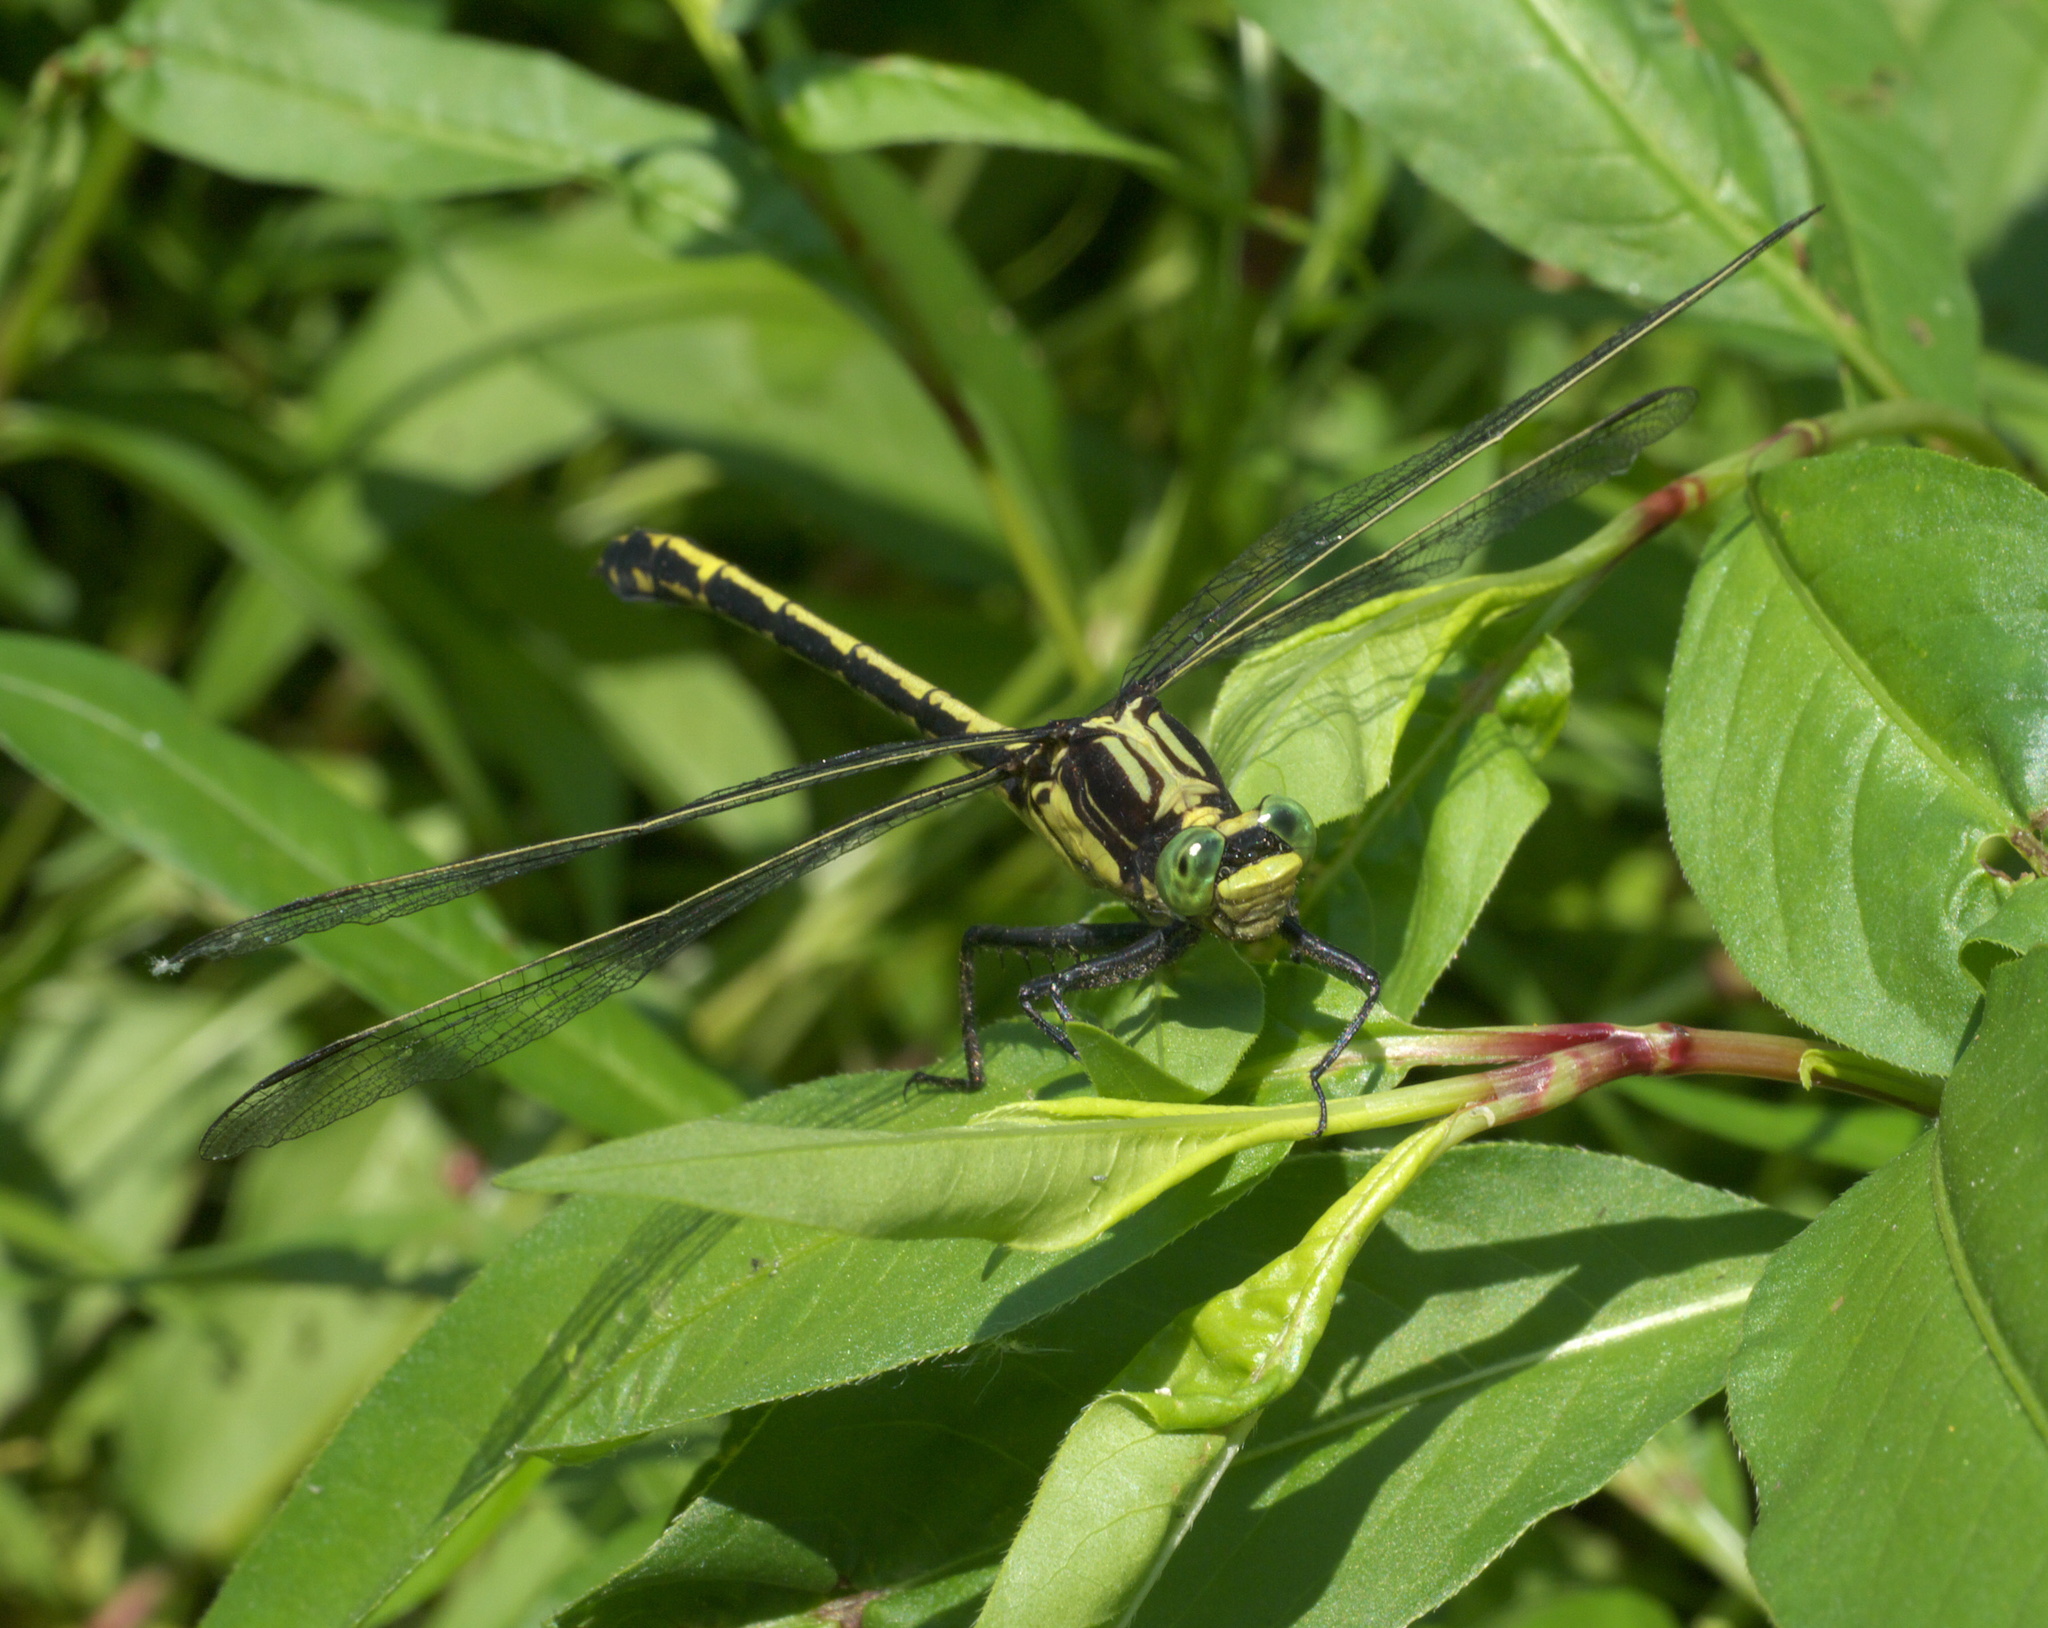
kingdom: Animalia
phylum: Arthropoda
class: Insecta
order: Odonata
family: Gomphidae
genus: Dromogomphus
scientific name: Dromogomphus spinosus
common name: Black-shouldered spinyleg
